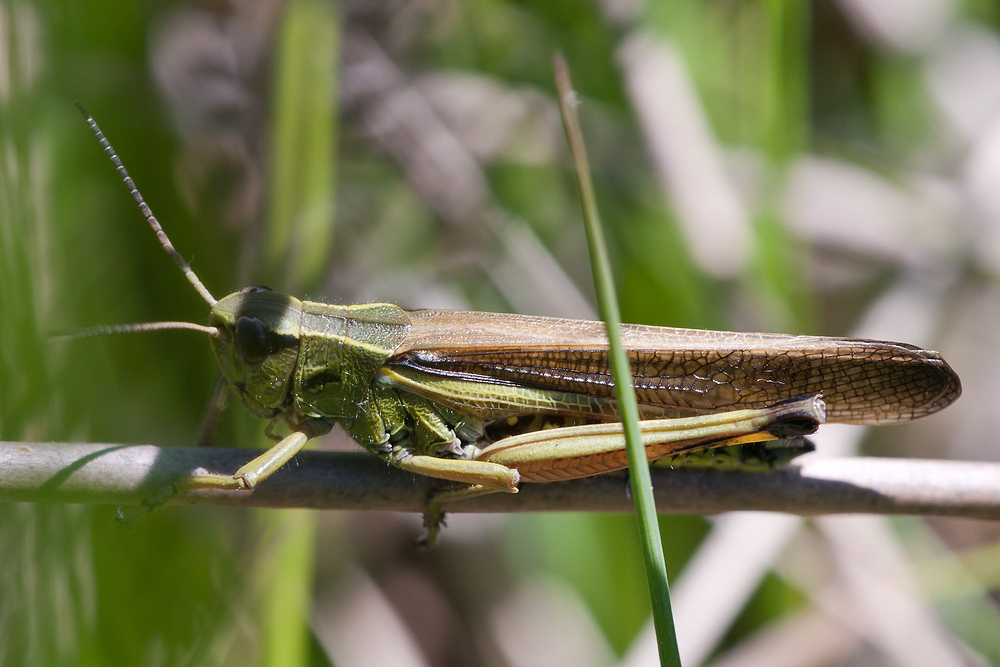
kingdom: Animalia
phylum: Arthropoda
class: Insecta
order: Orthoptera
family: Acrididae
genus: Stethophyma
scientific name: Stethophyma grossum
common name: Large marsh grasshopper
